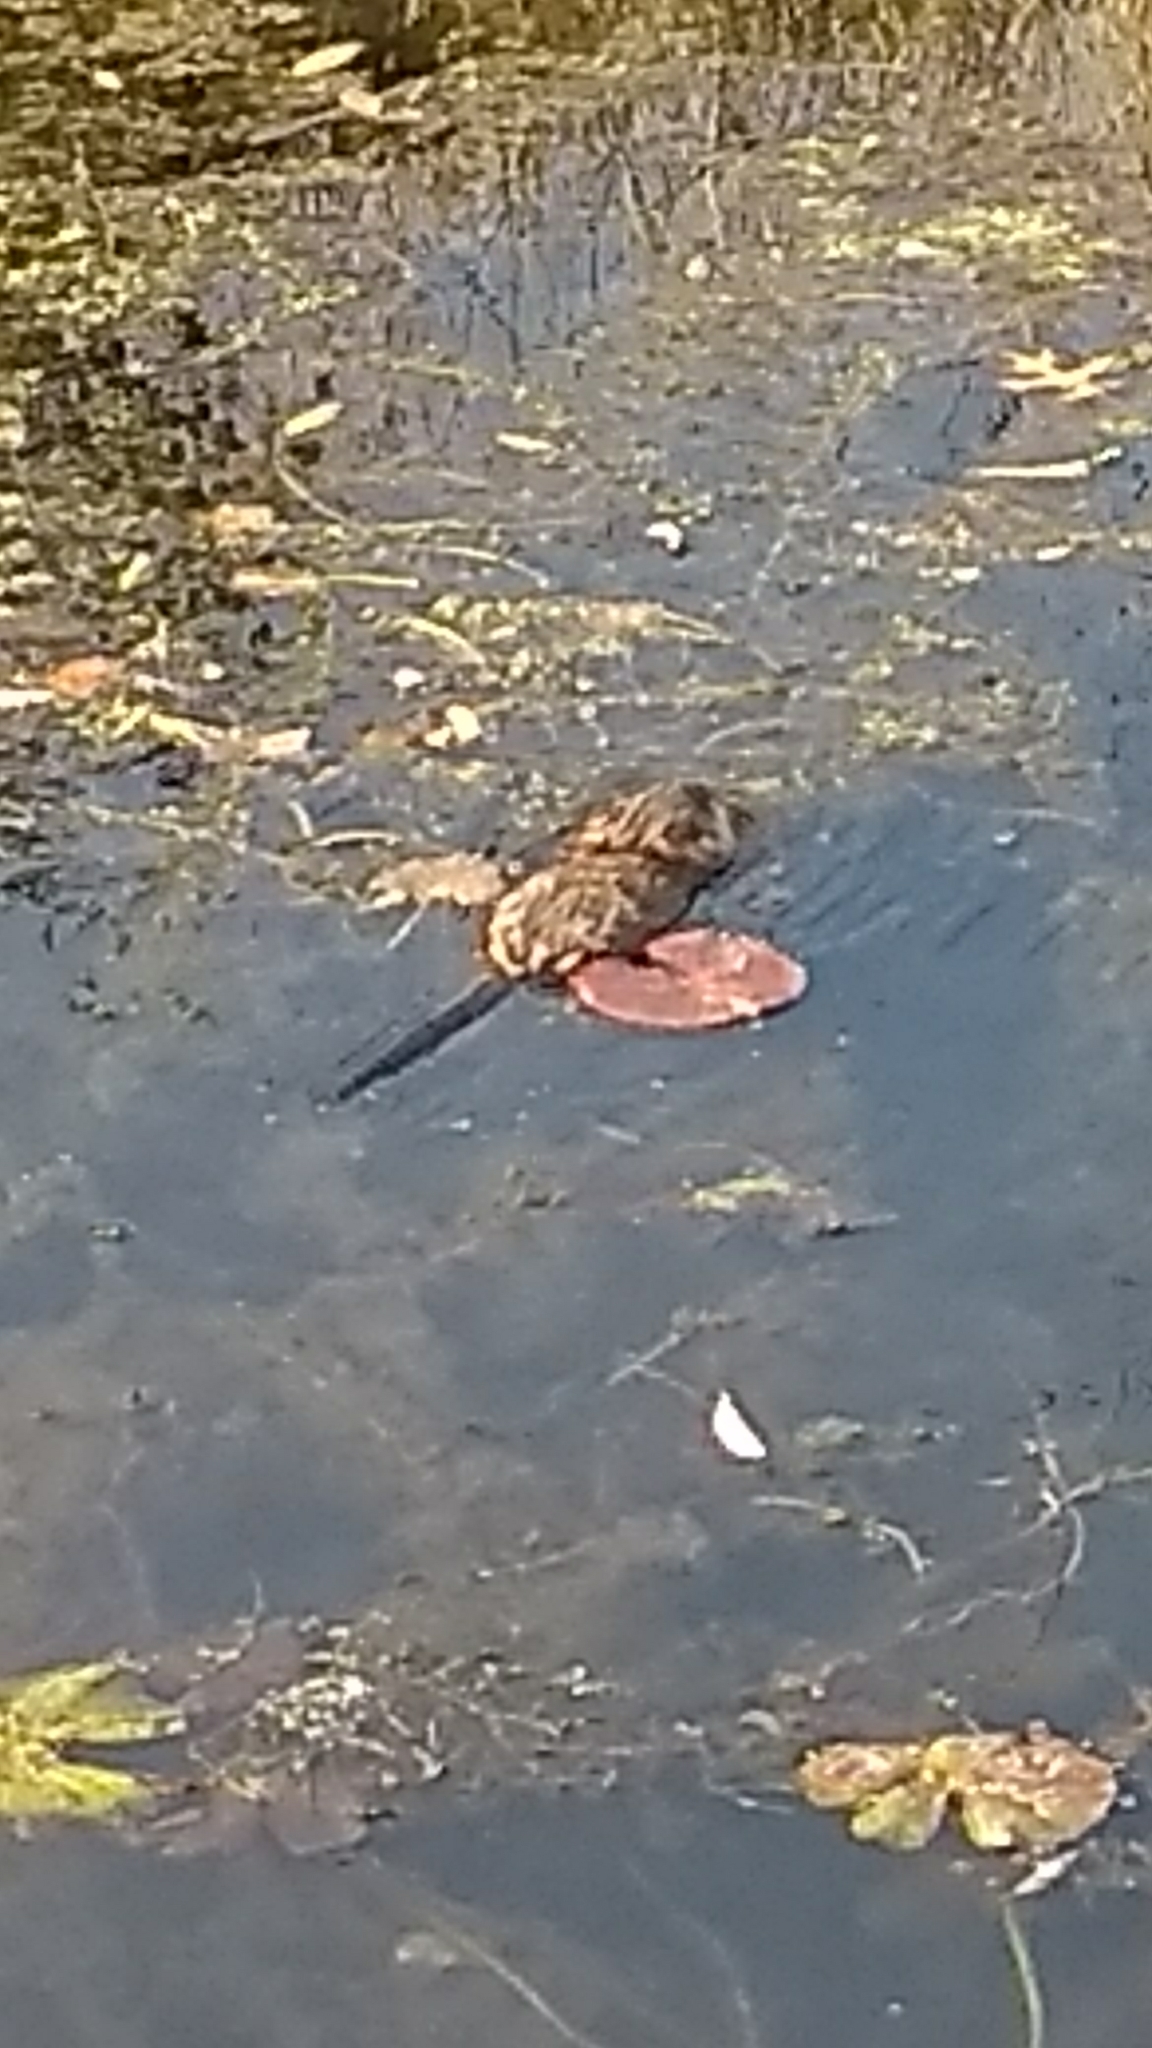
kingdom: Animalia
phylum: Chordata
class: Mammalia
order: Rodentia
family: Cricetidae
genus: Ondatra
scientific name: Ondatra zibethicus
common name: Muskrat
